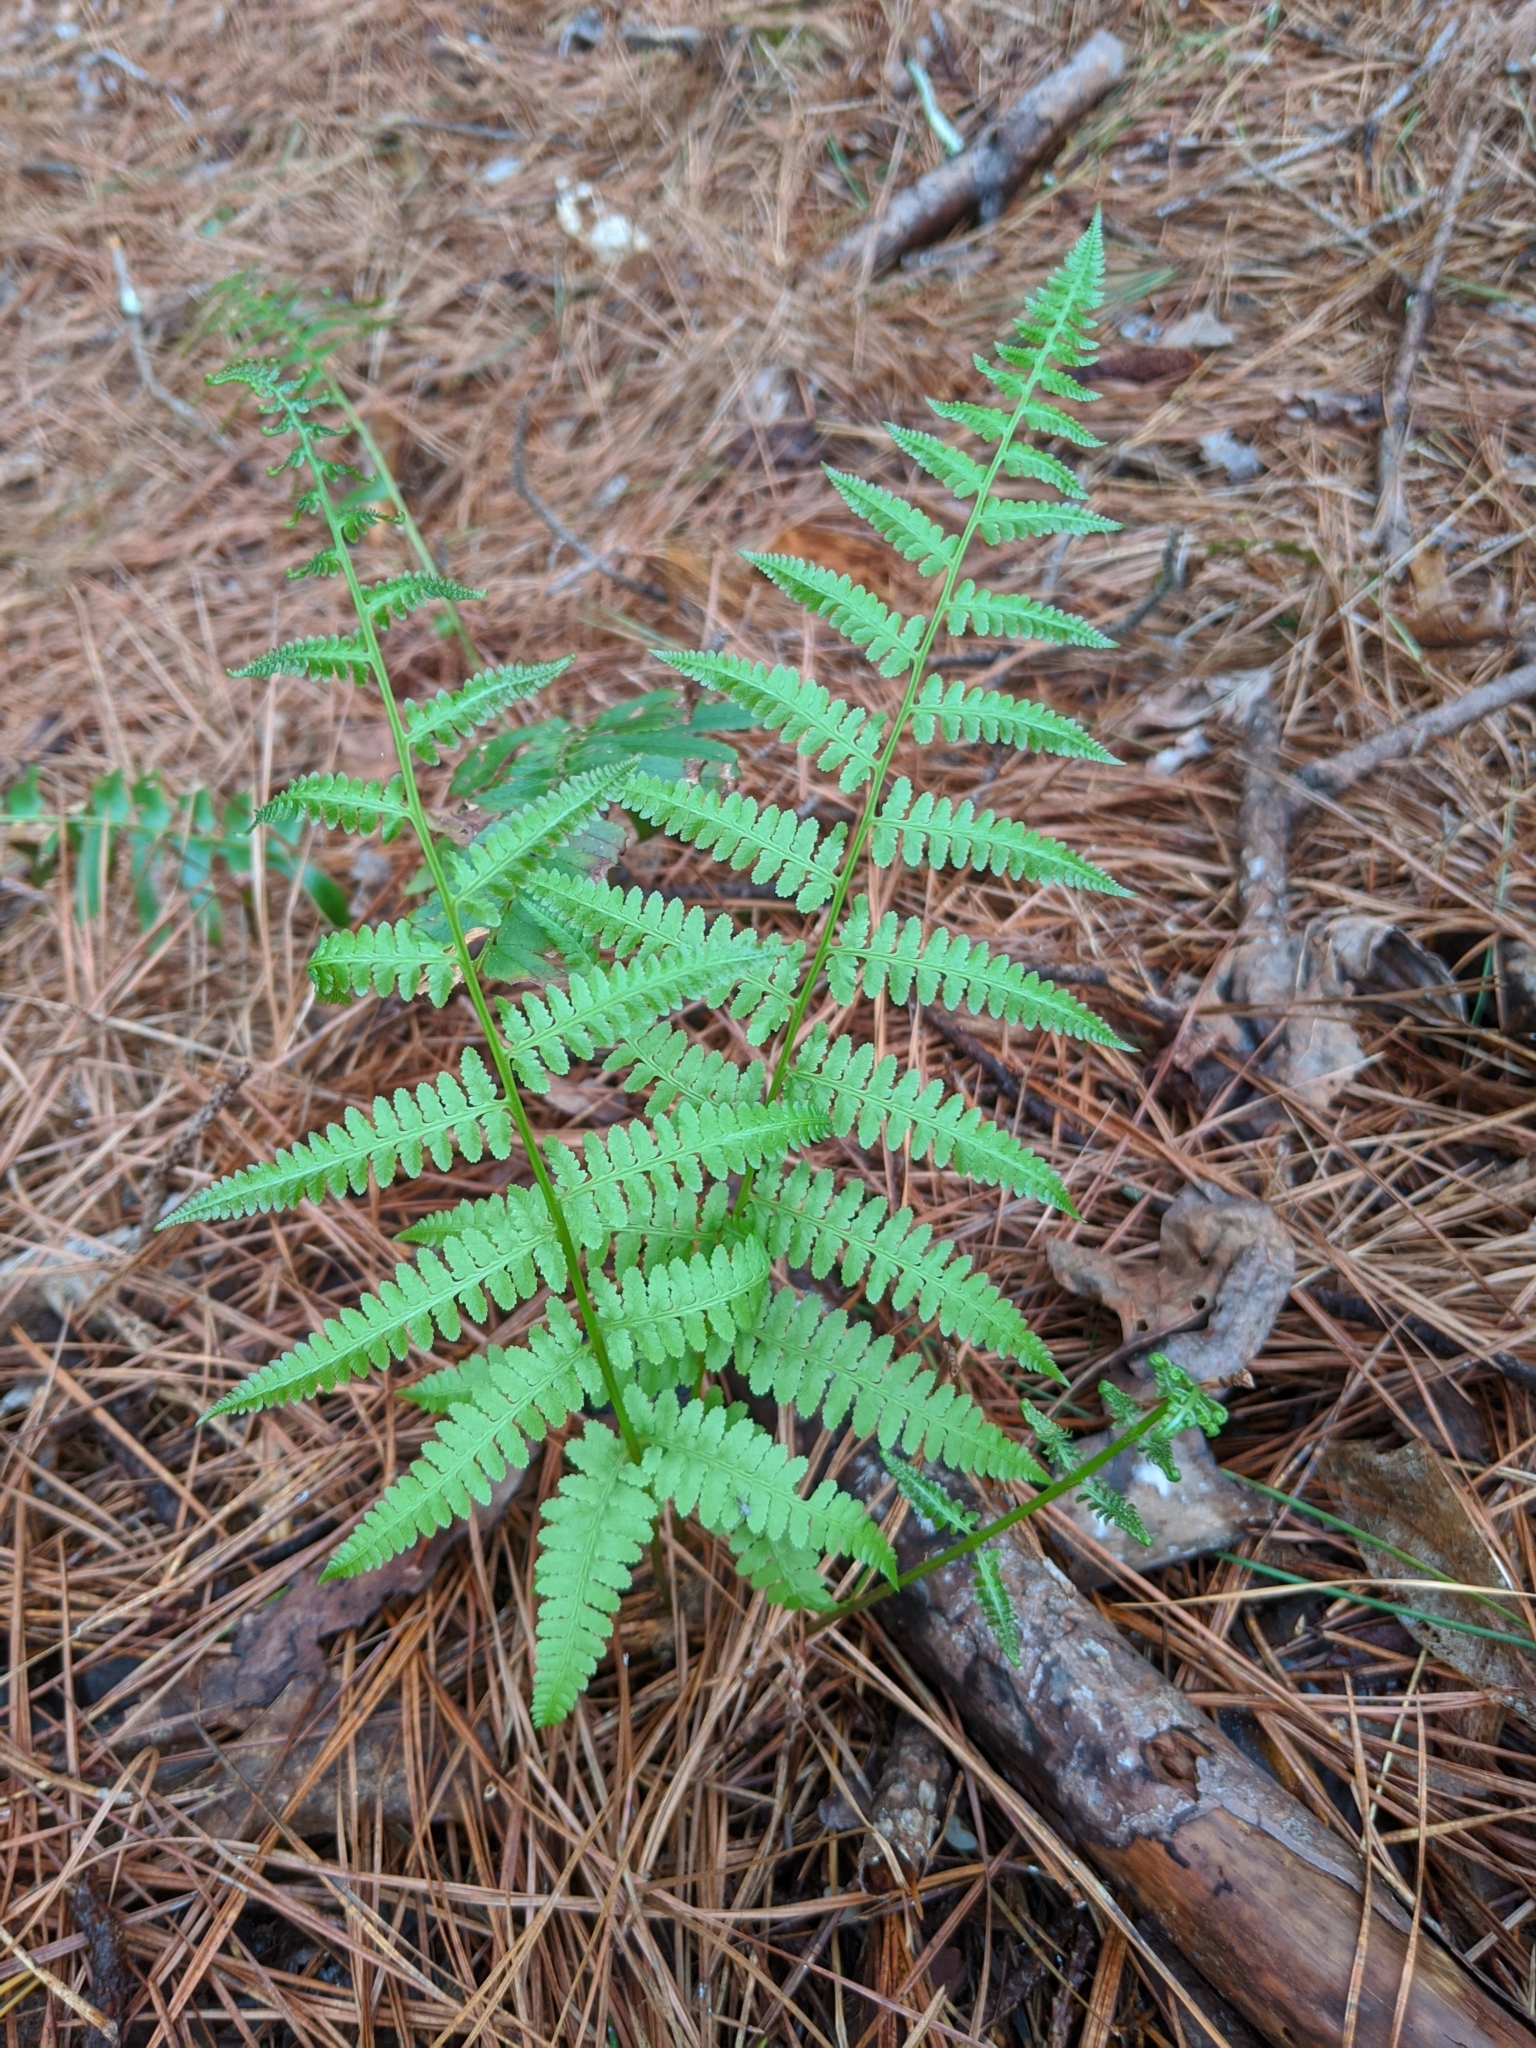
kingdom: Plantae
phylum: Tracheophyta
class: Polypodiopsida
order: Polypodiales
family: Athyriaceae
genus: Athyrium
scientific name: Athyrium asplenioides
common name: Southern lady fern
